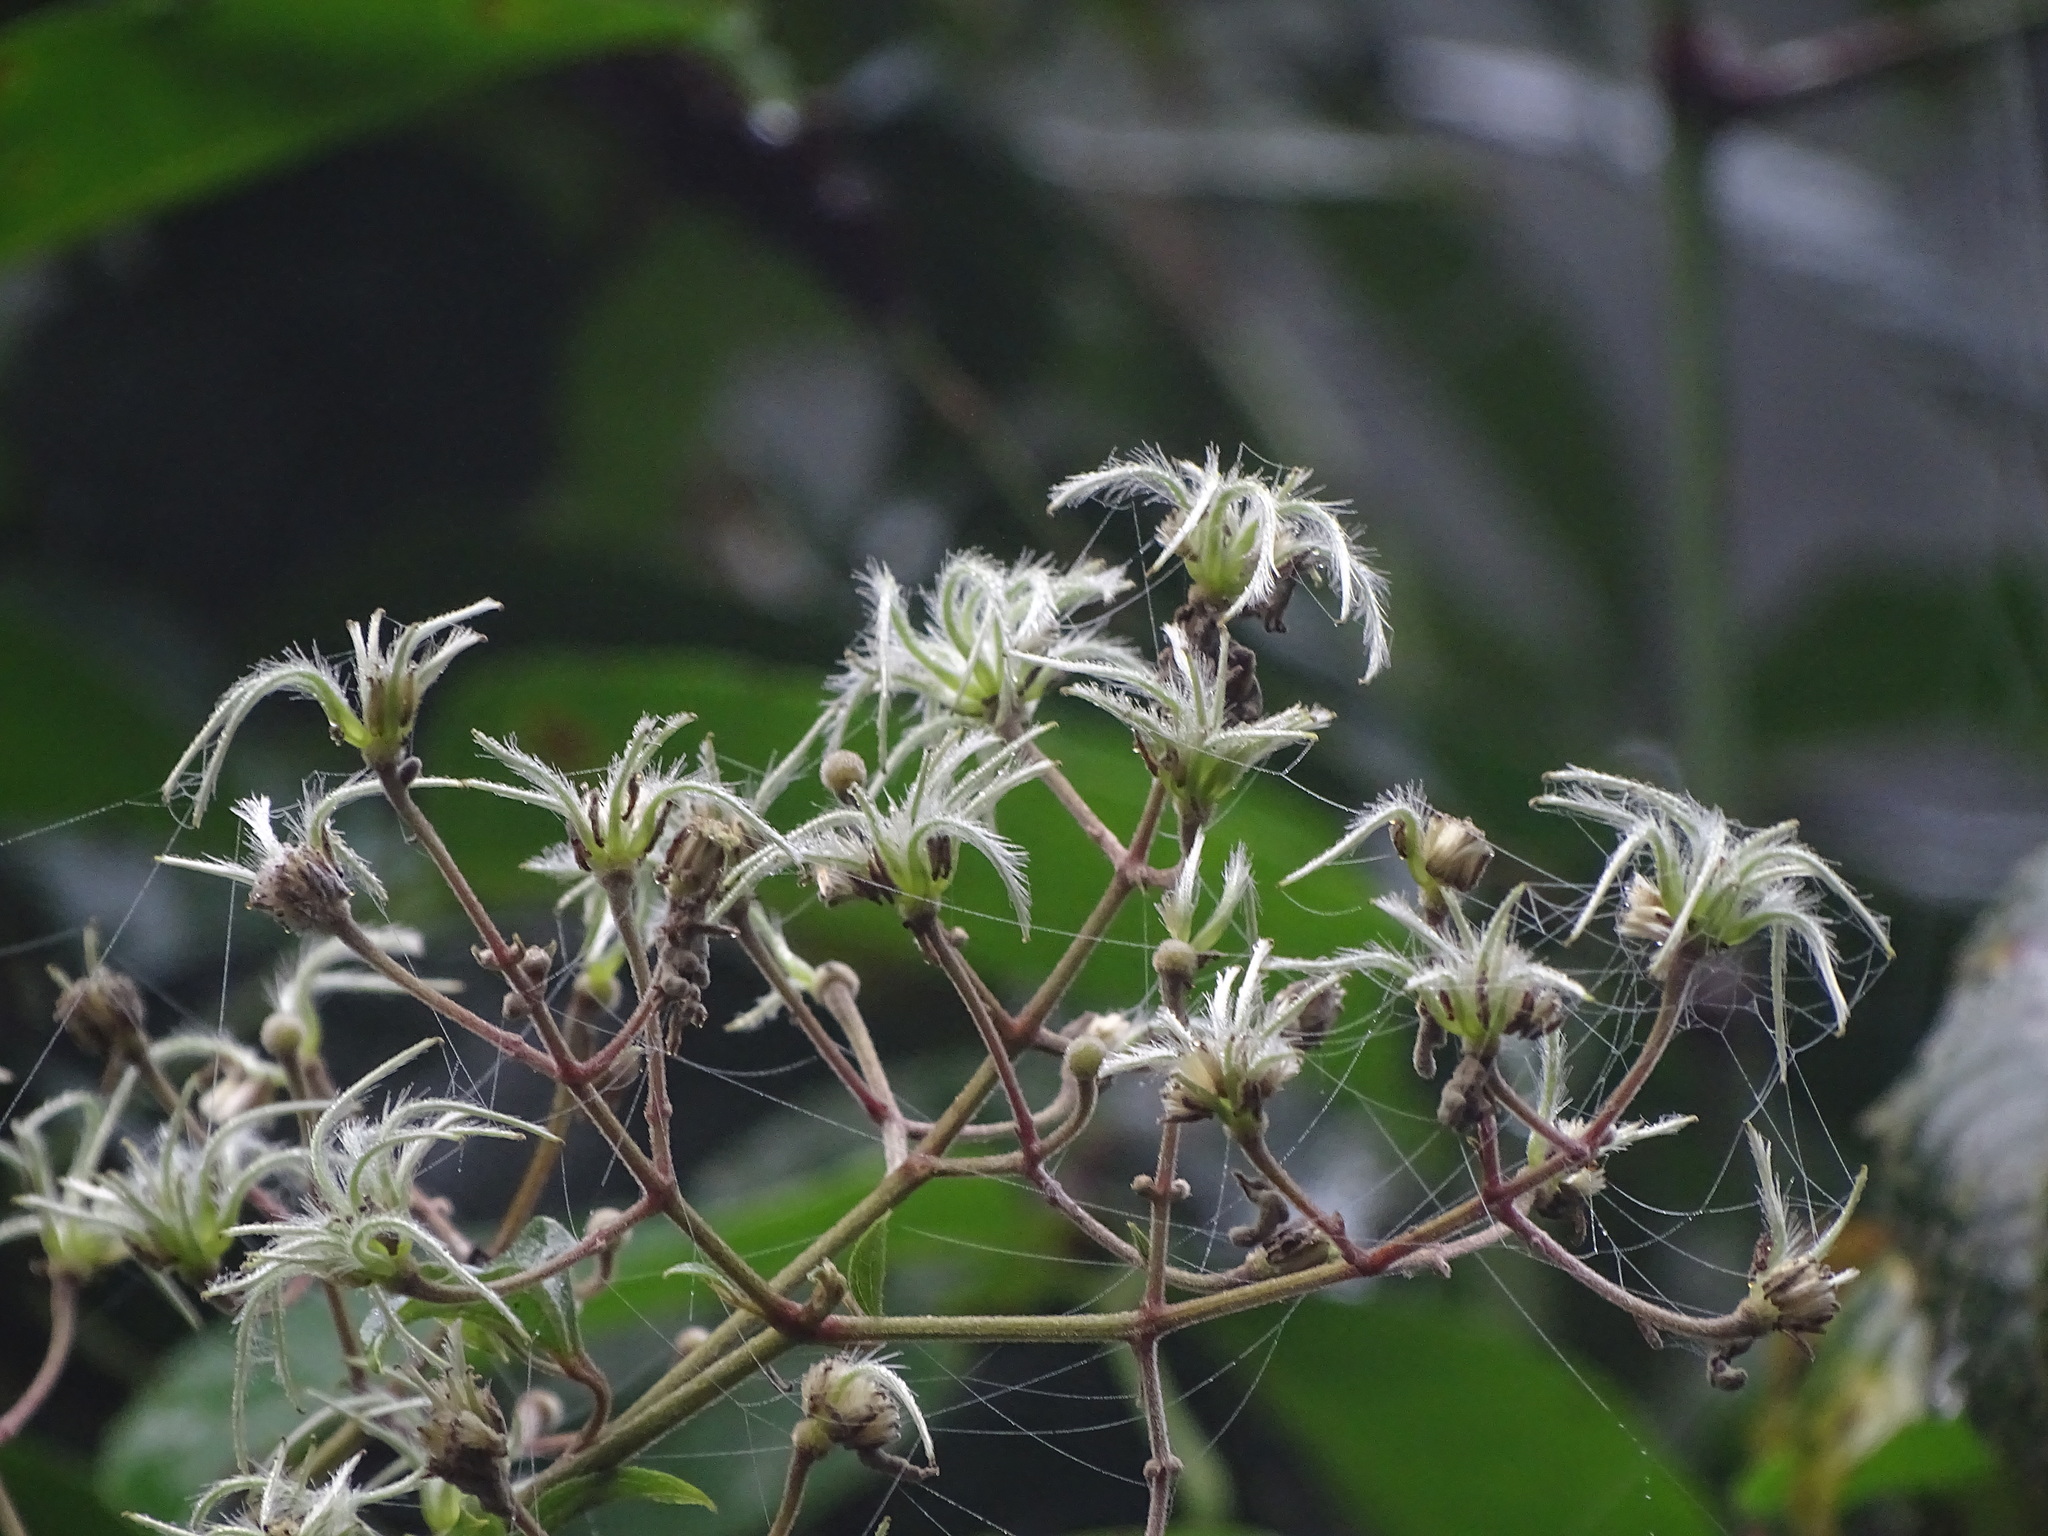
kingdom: Plantae
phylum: Tracheophyta
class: Magnoliopsida
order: Ranunculales
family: Ranunculaceae
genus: Clematis
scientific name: Clematis zeylanica
